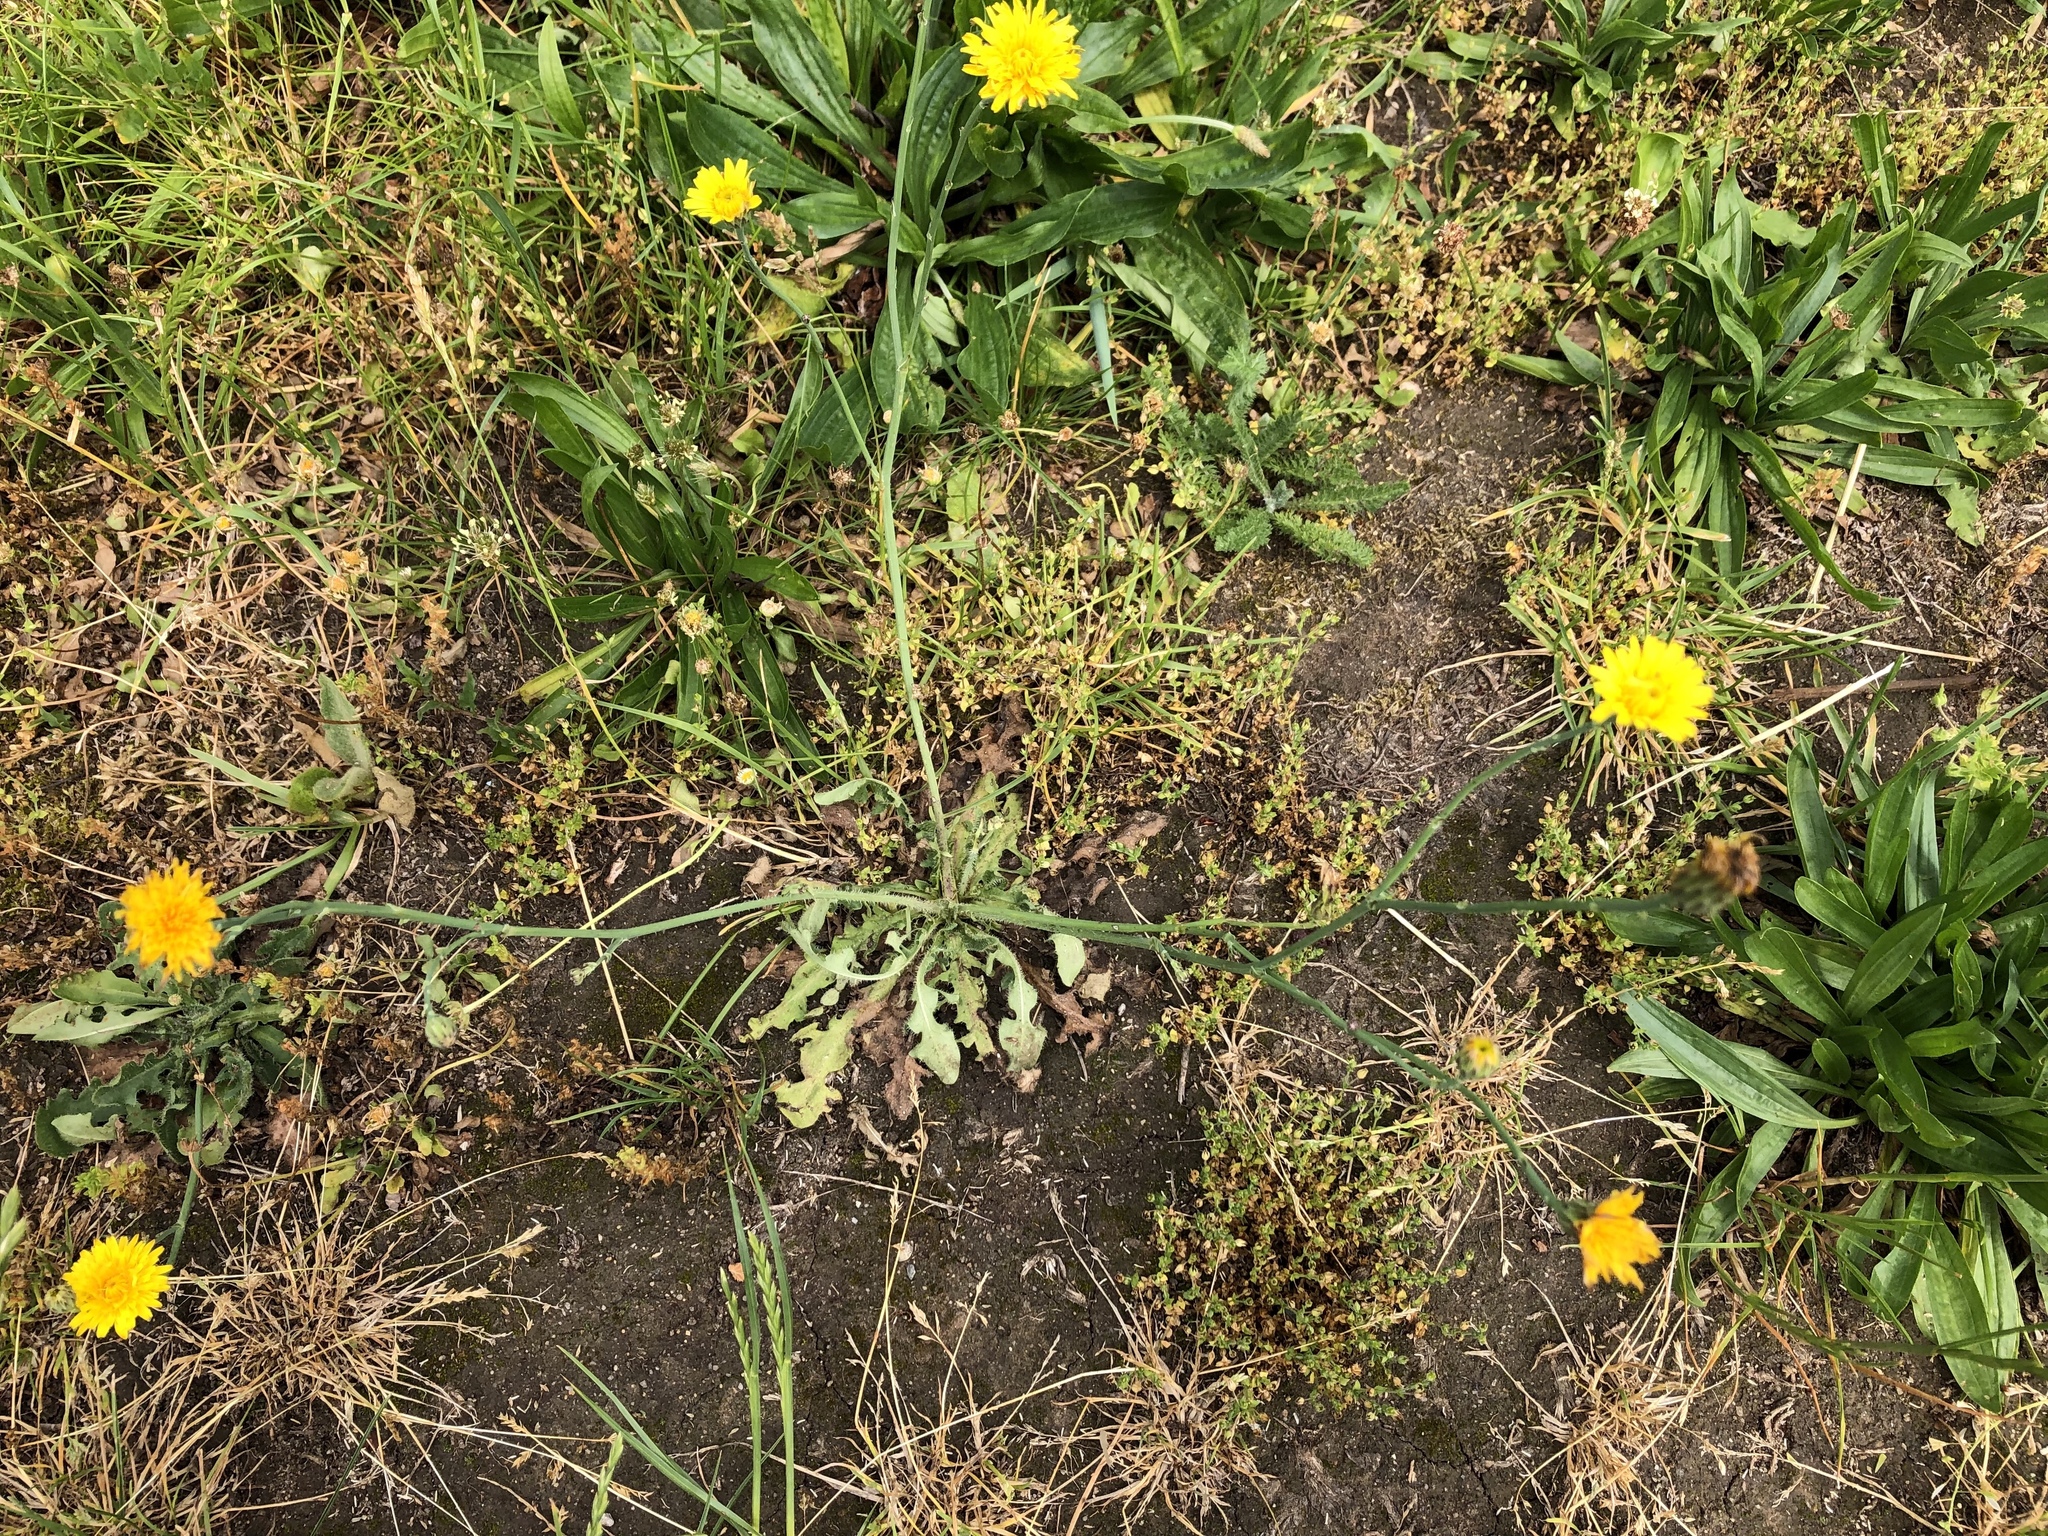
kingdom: Plantae
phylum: Tracheophyta
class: Magnoliopsida
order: Asterales
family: Asteraceae
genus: Hypochaeris
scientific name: Hypochaeris radicata
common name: Flatweed
